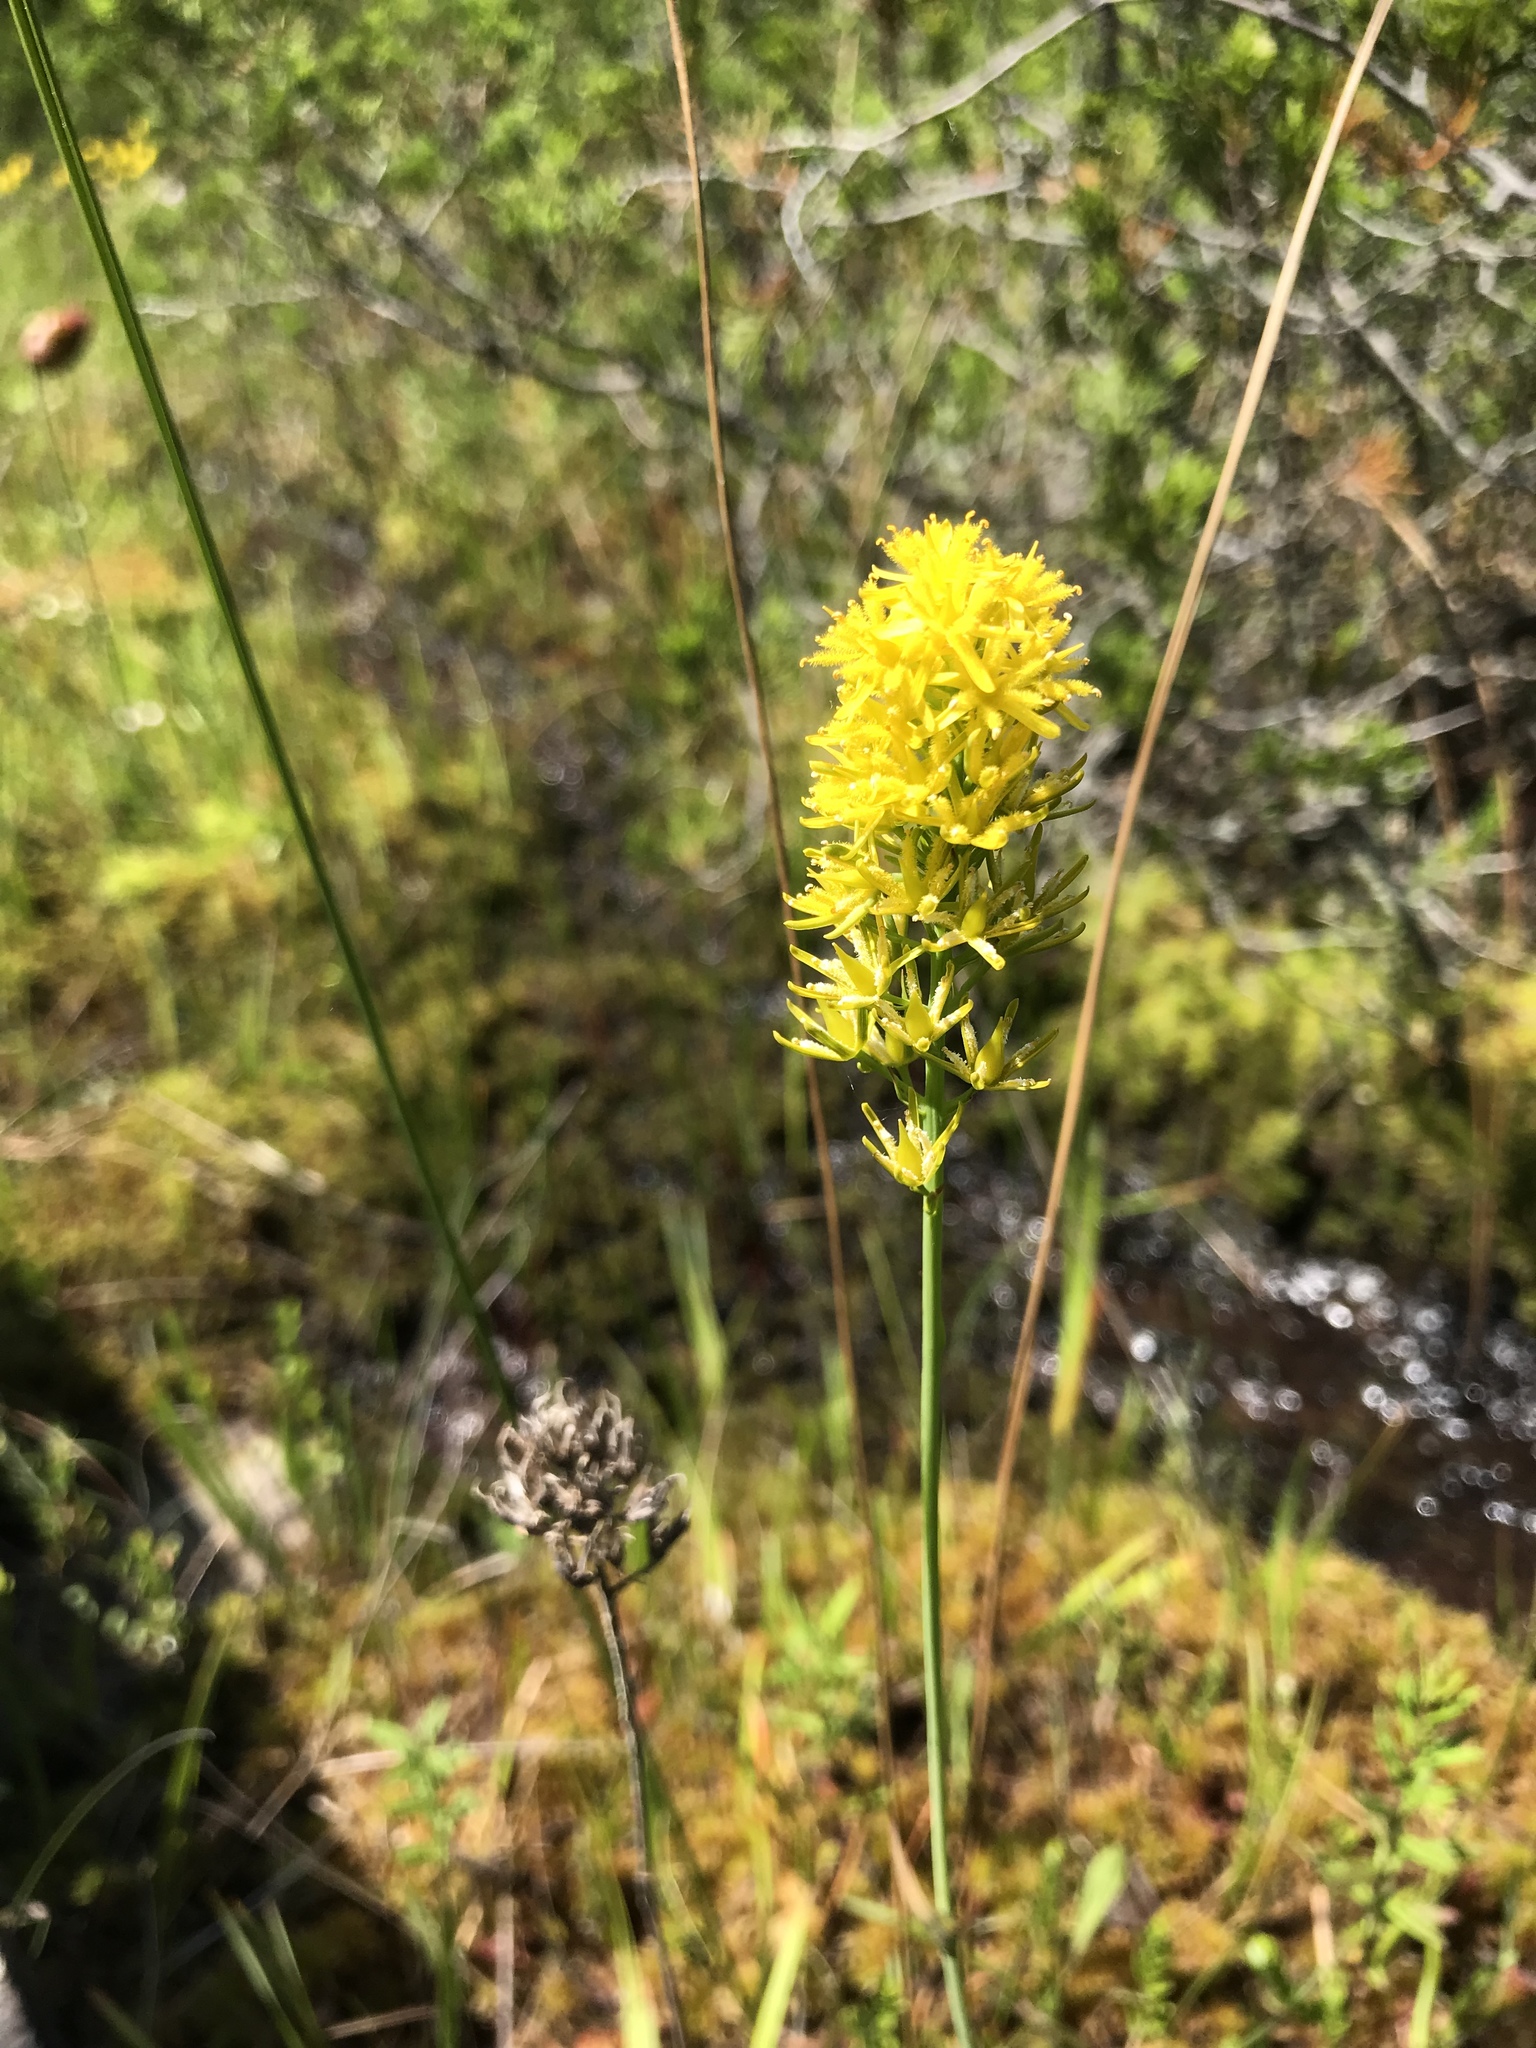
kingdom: Plantae
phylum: Tracheophyta
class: Liliopsida
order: Dioscoreales
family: Nartheciaceae
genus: Narthecium
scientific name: Narthecium americanum
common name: Bog-asphodel
